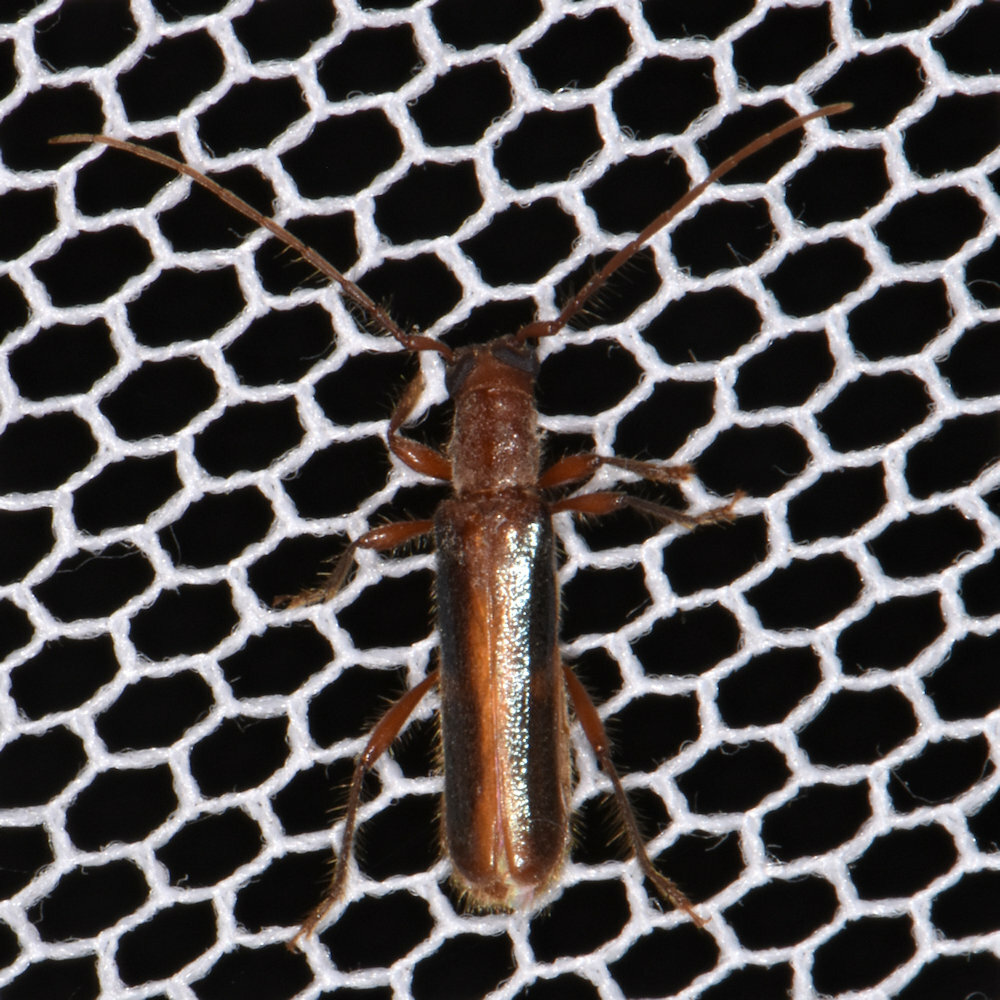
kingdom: Animalia
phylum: Arthropoda
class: Insecta
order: Coleoptera
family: Cerambycidae
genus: Ossibia
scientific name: Ossibia fuscata
